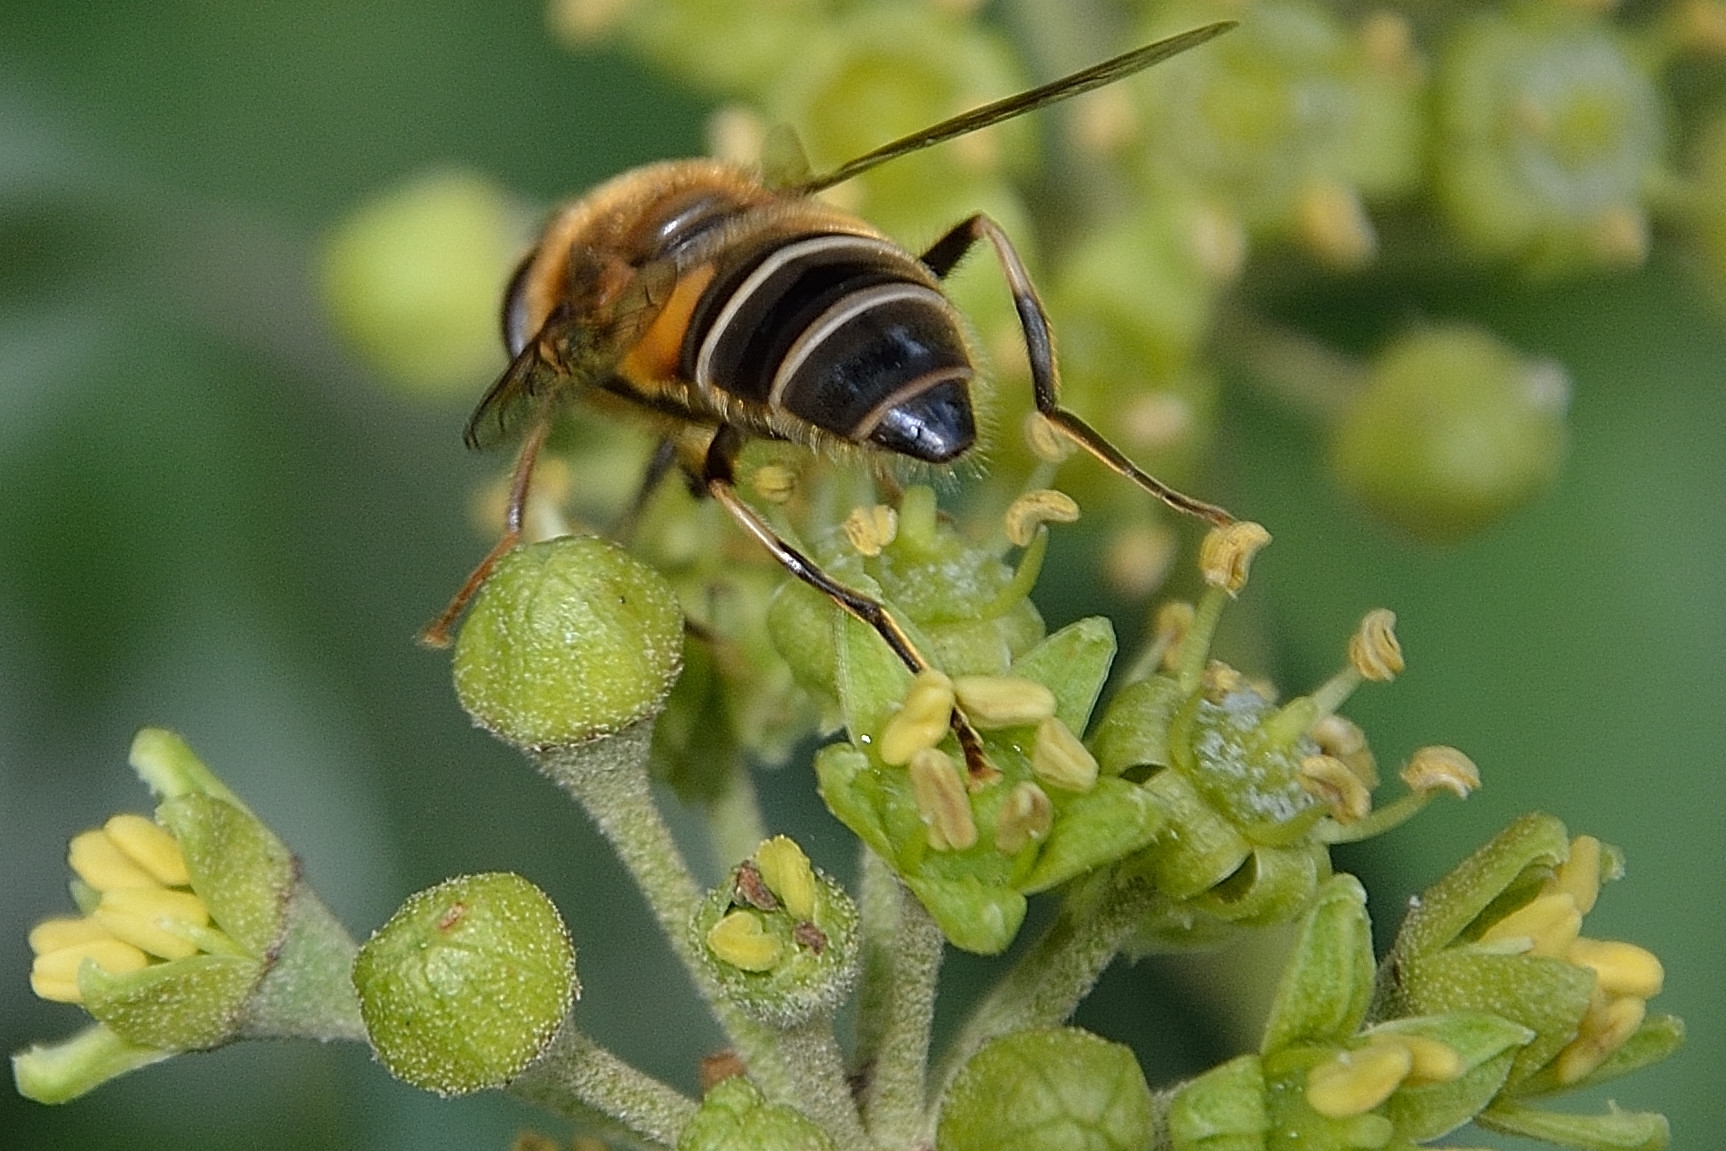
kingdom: Animalia
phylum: Arthropoda
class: Insecta
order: Diptera
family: Syrphidae
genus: Eristalis
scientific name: Eristalis pertinax
